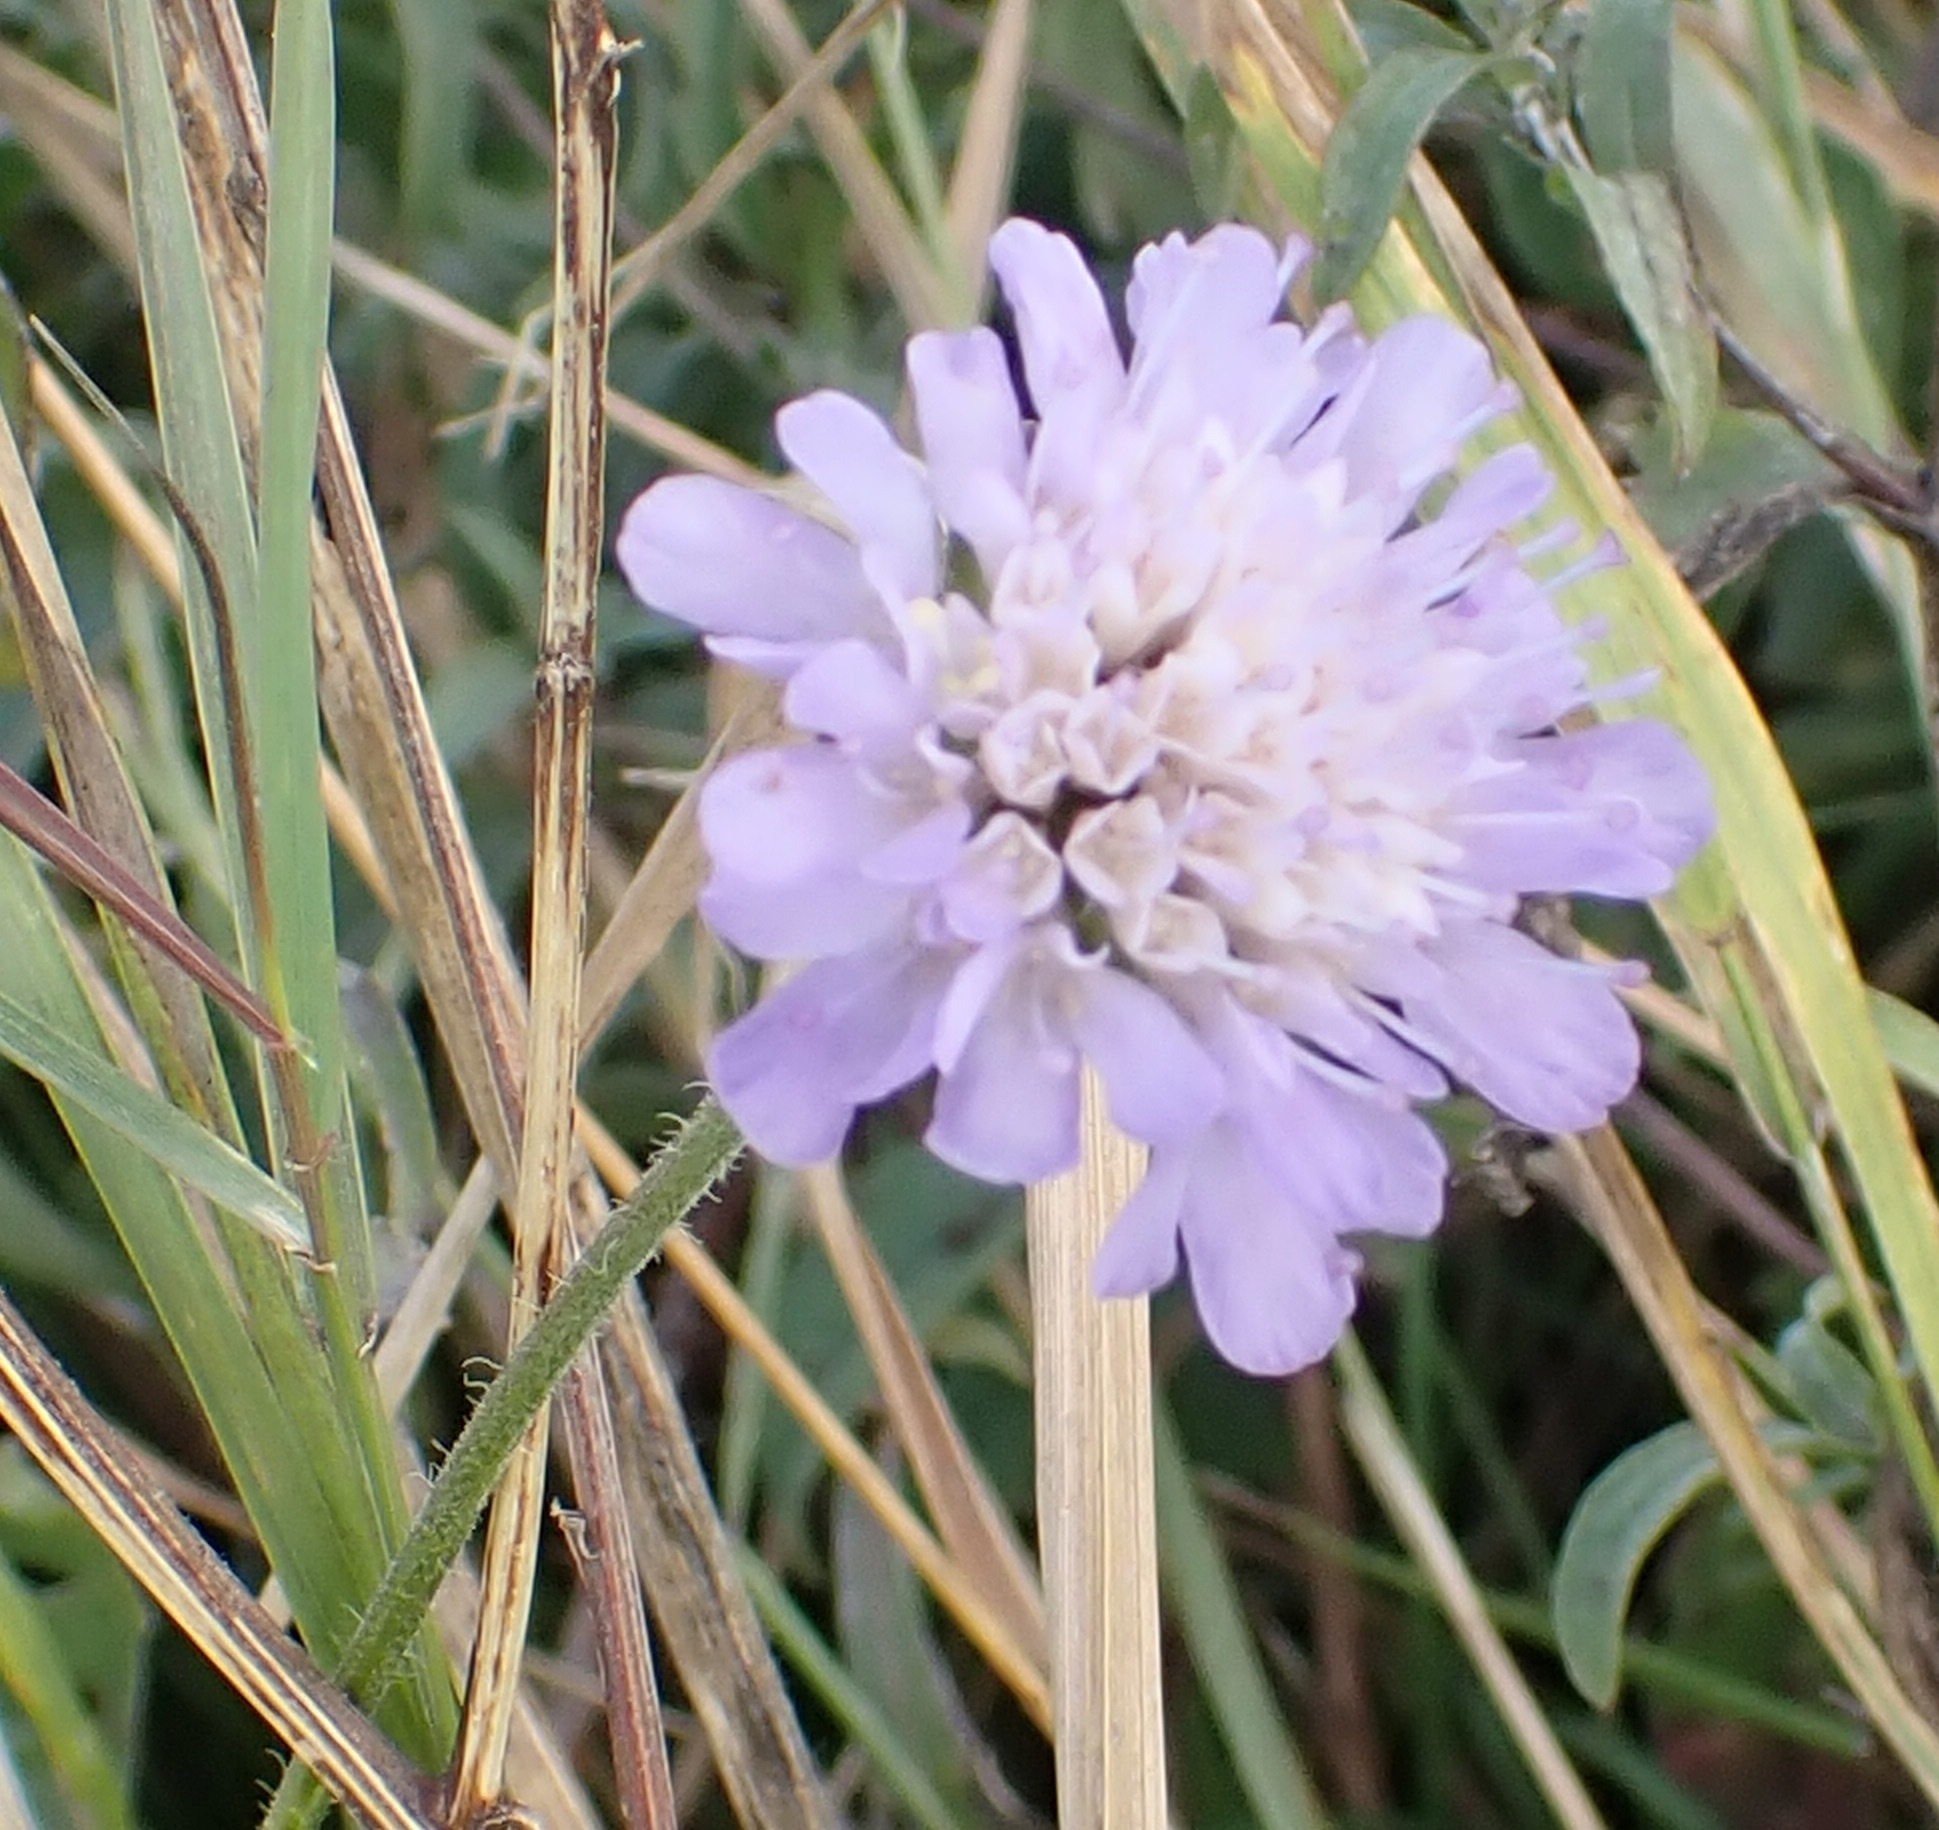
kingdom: Plantae
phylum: Tracheophyta
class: Magnoliopsida
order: Dipsacales
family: Caprifoliaceae
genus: Knautia
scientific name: Knautia arvensis
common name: Field scabiosa
